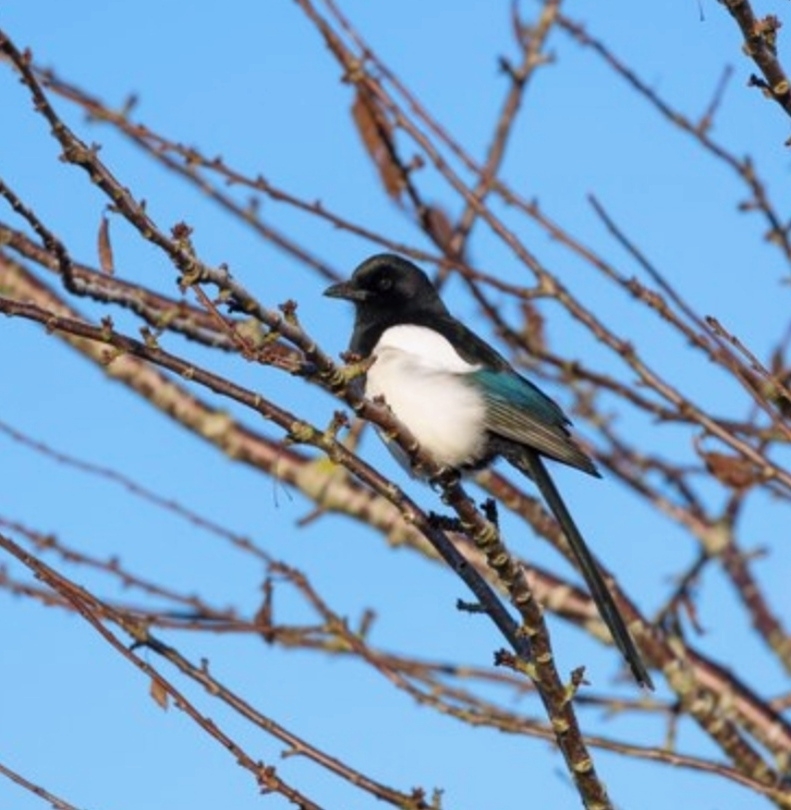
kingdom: Animalia
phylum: Chordata
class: Aves
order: Passeriformes
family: Corvidae
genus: Pica
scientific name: Pica pica
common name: Eurasian magpie
